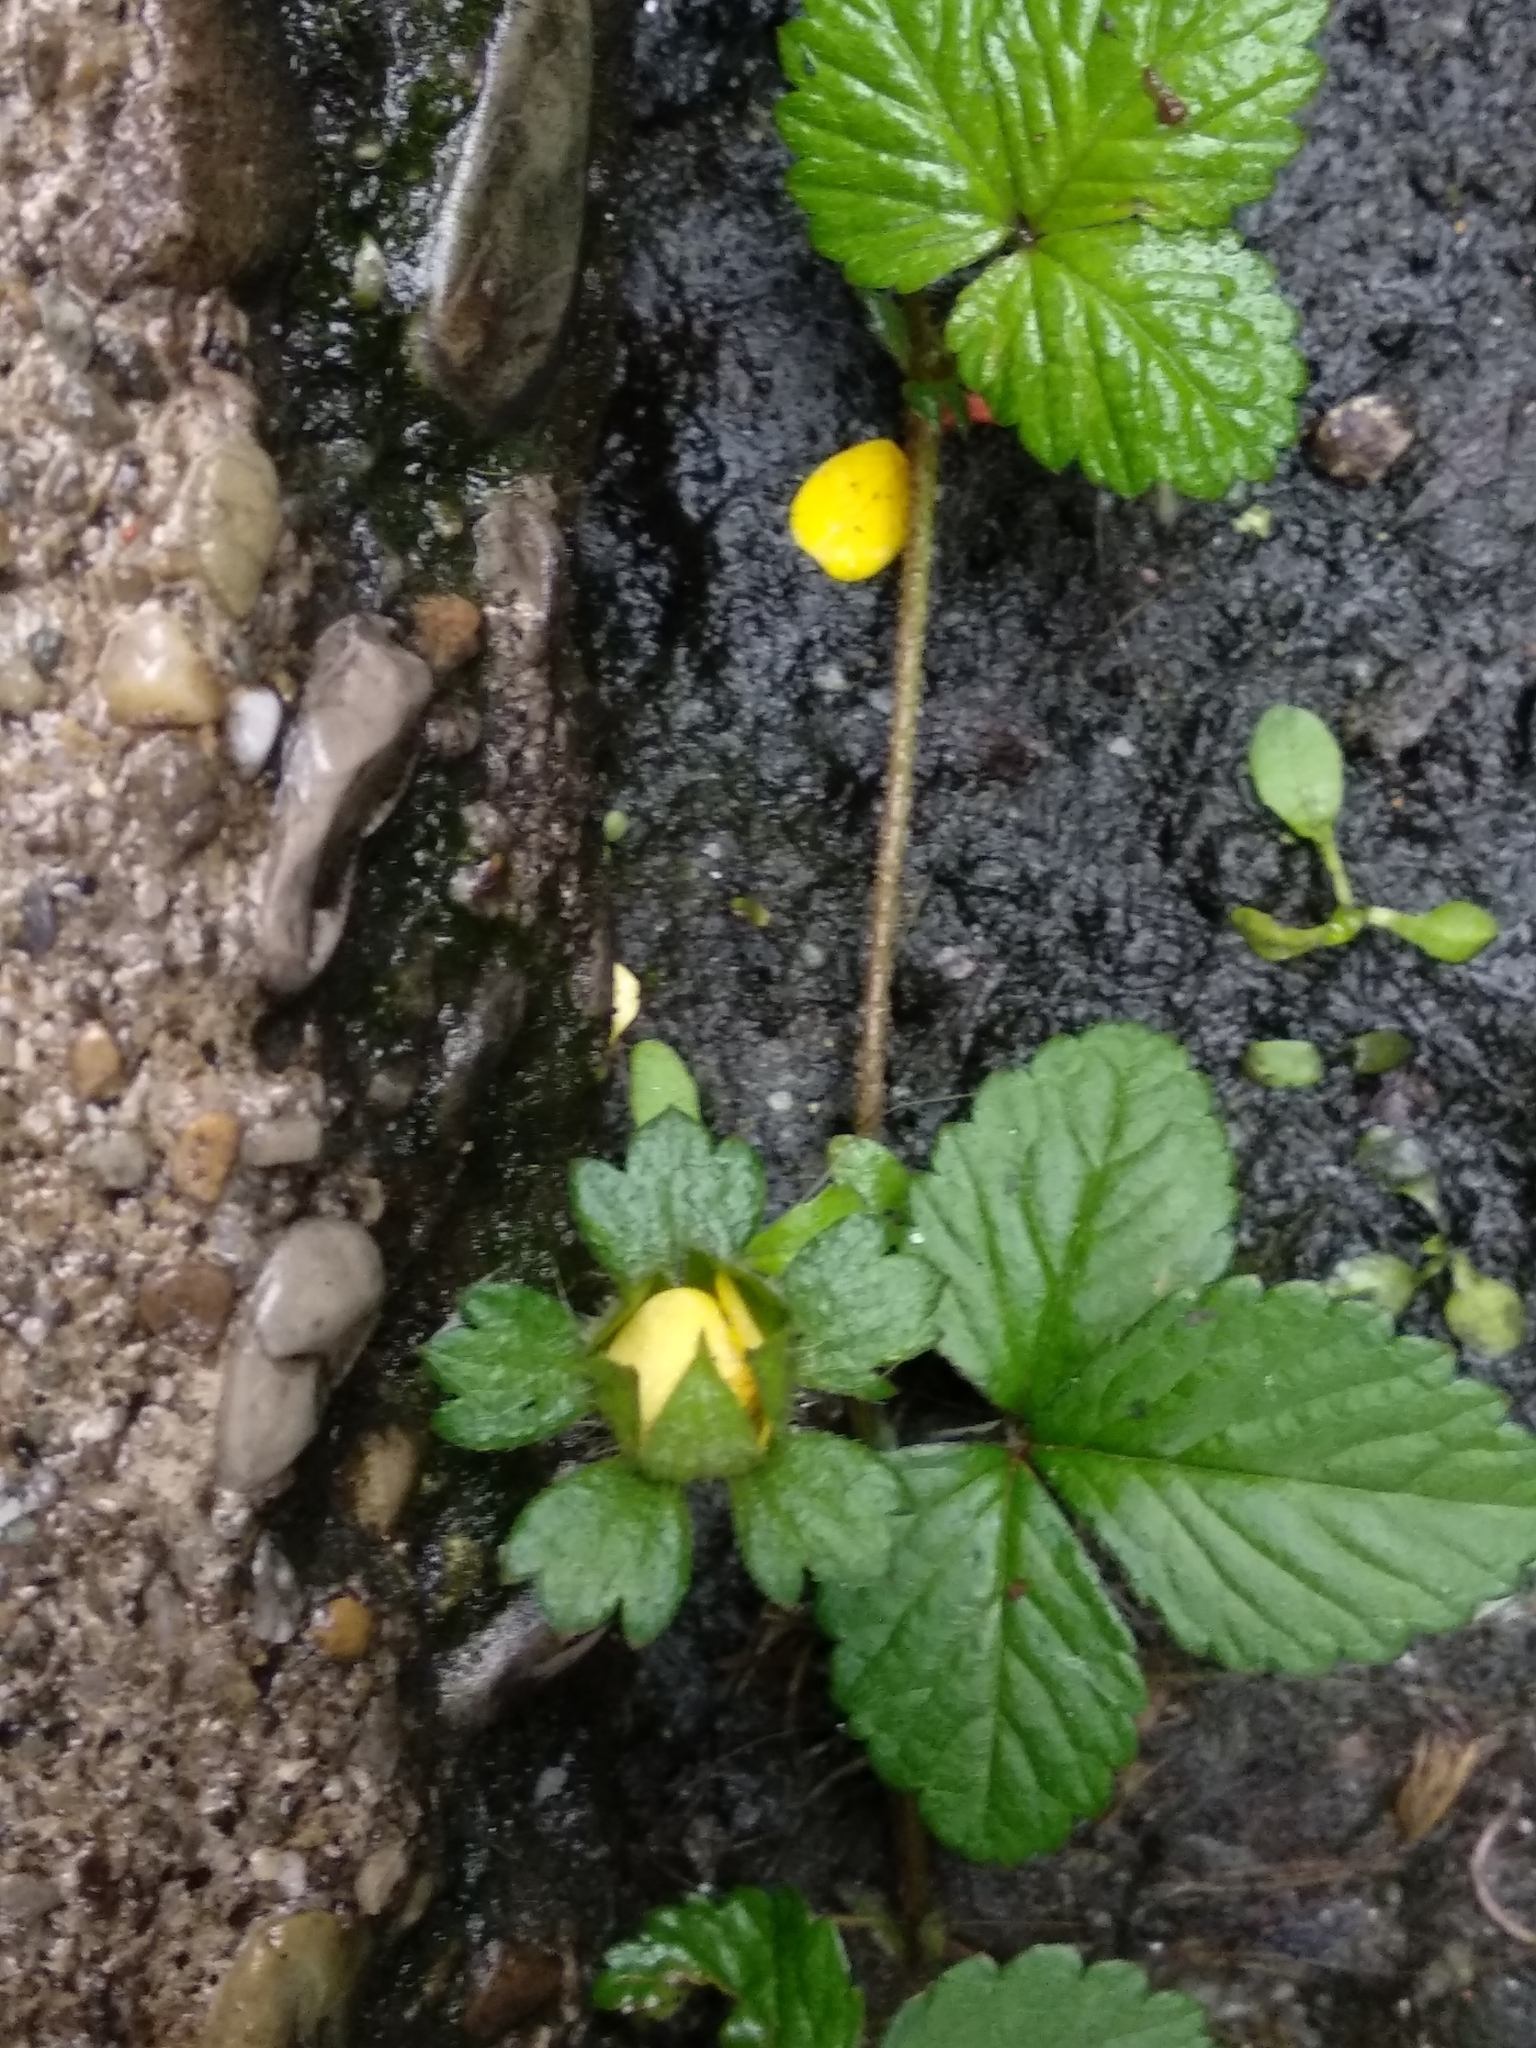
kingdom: Plantae
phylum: Tracheophyta
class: Magnoliopsida
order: Rosales
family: Rosaceae
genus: Potentilla
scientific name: Potentilla indica
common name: Yellow-flowered strawberry
